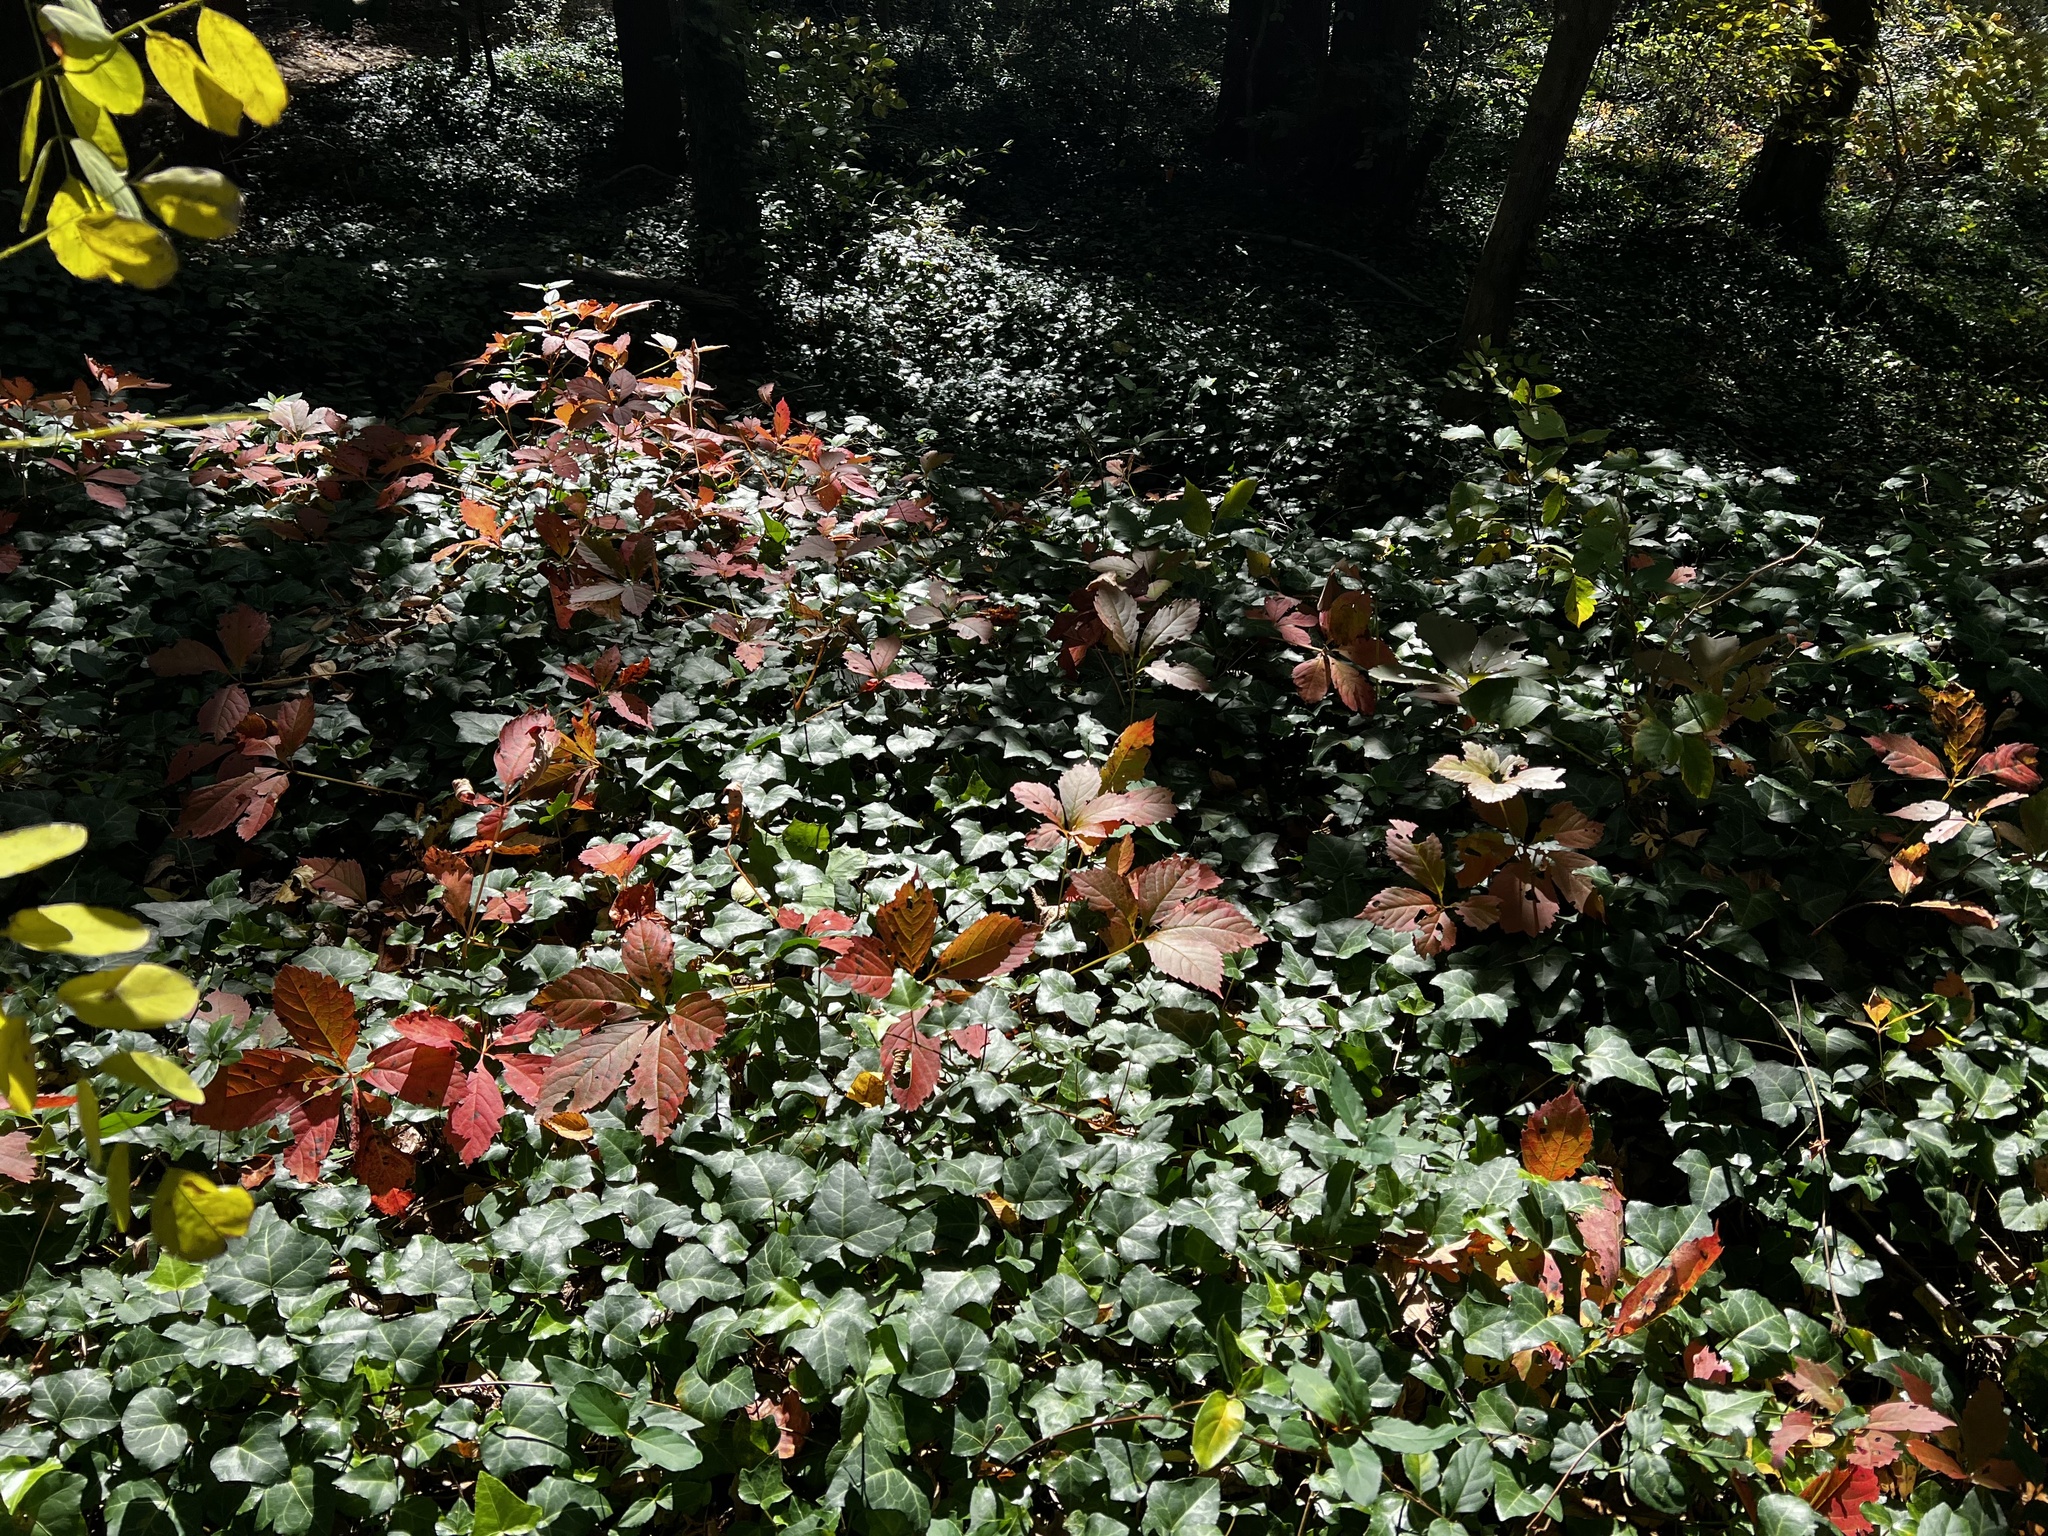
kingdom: Plantae
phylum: Tracheophyta
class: Magnoliopsida
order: Vitales
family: Vitaceae
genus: Parthenocissus
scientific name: Parthenocissus quinquefolia
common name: Virginia-creeper
